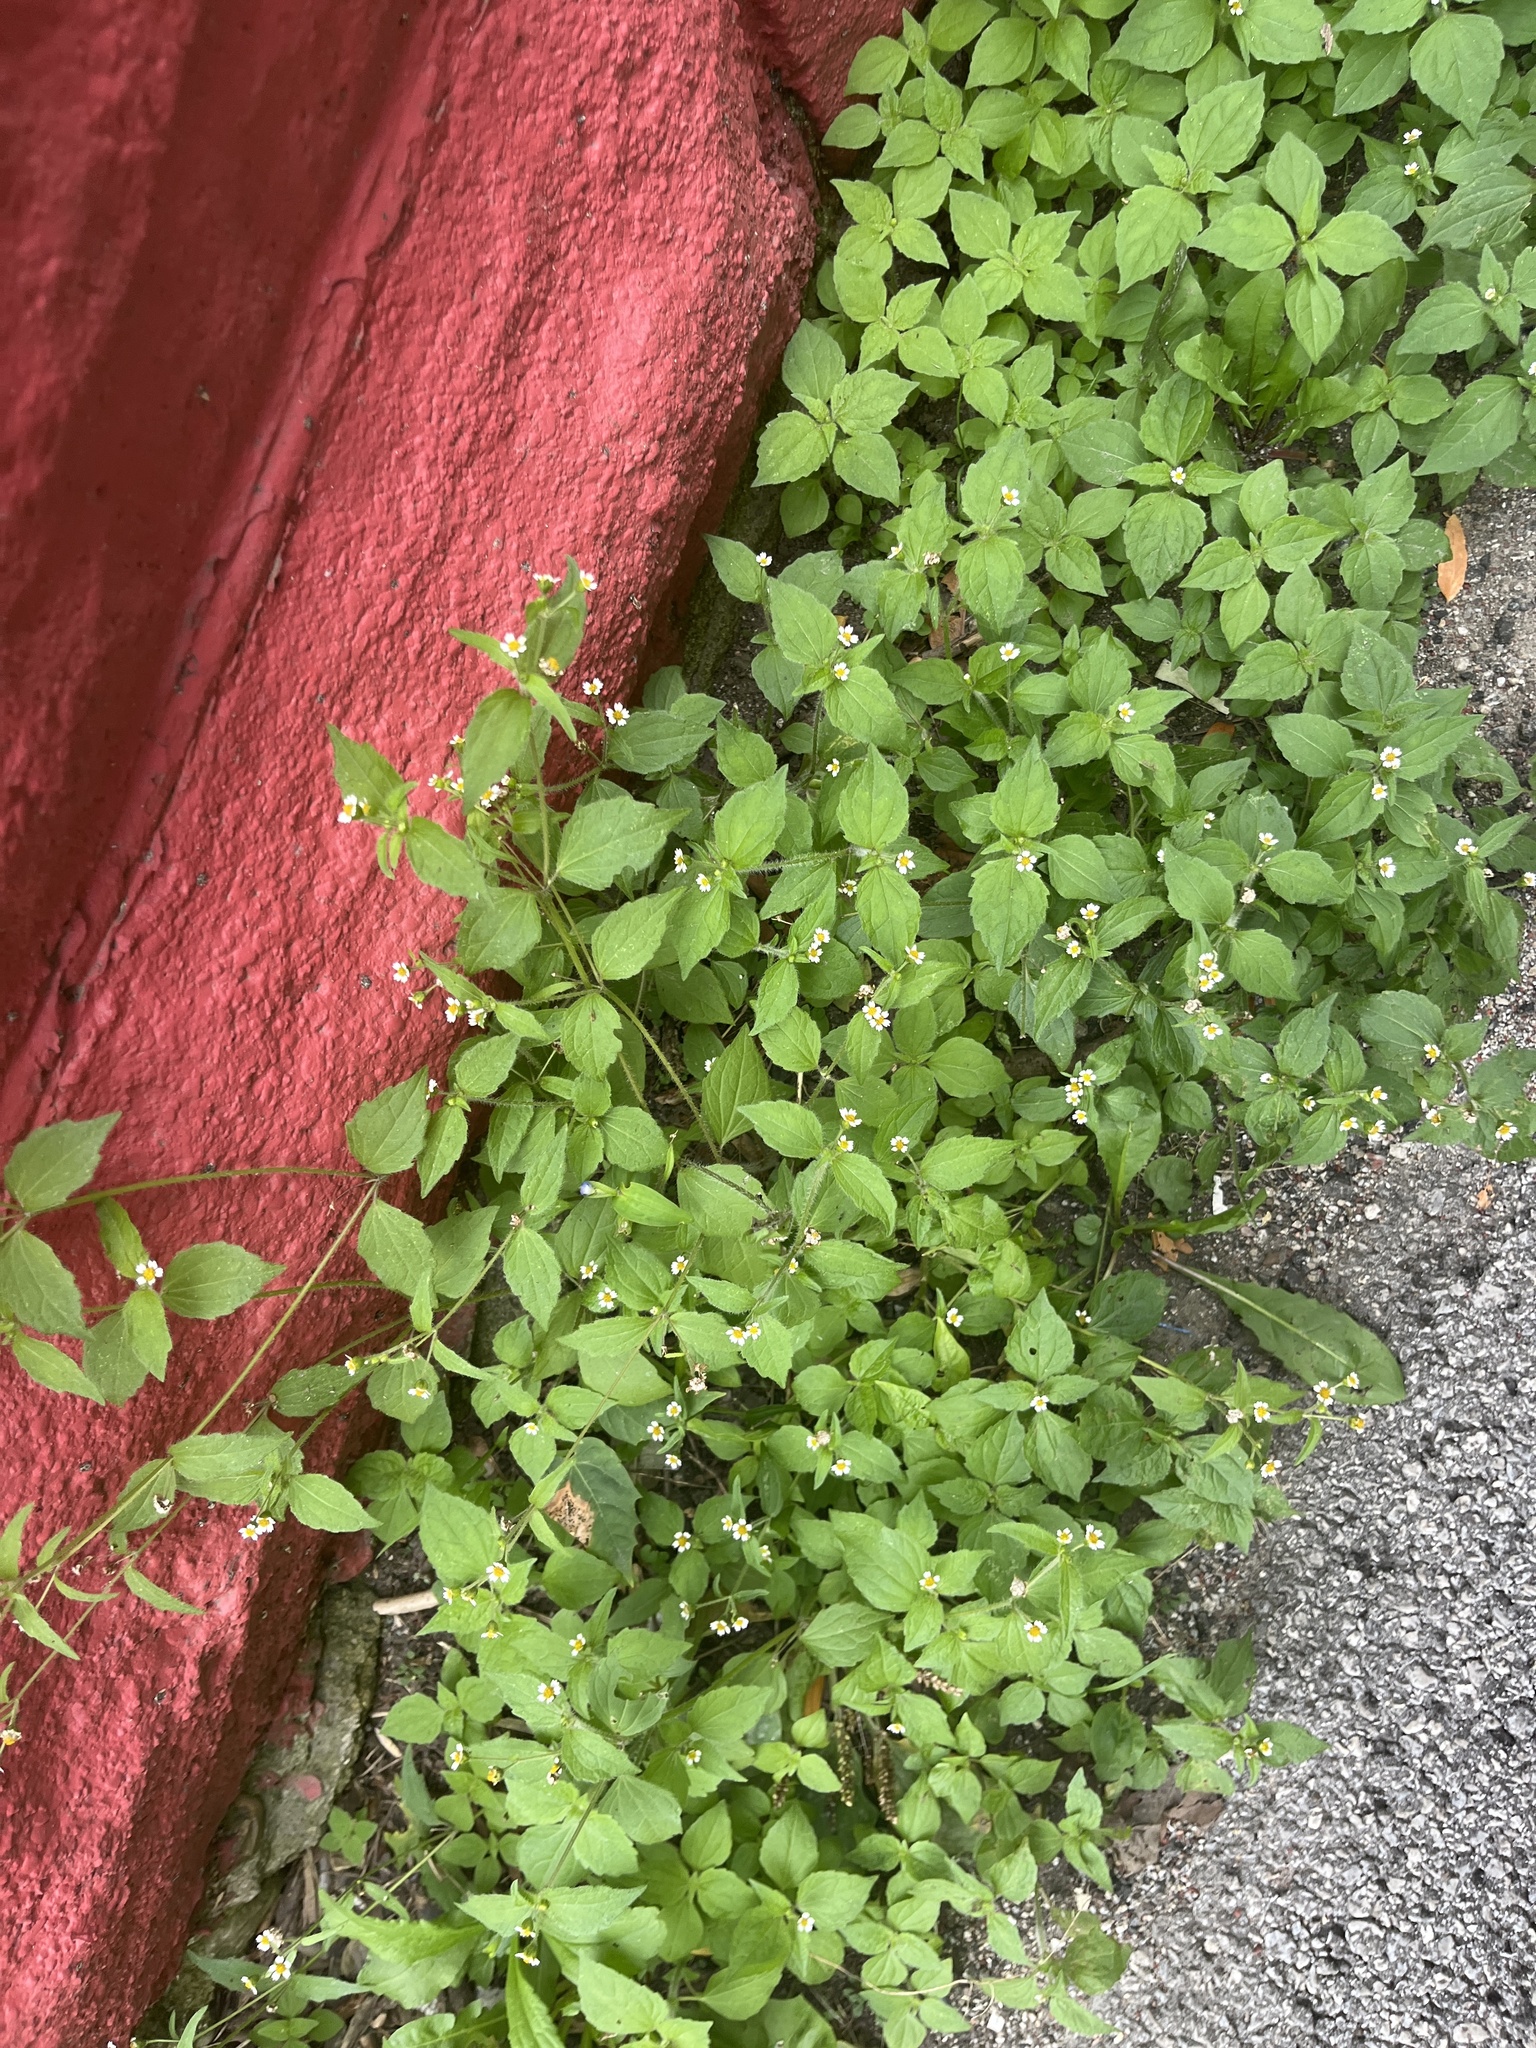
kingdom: Plantae
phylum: Tracheophyta
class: Magnoliopsida
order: Asterales
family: Asteraceae
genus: Galinsoga
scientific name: Galinsoga quadriradiata
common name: Shaggy soldier
